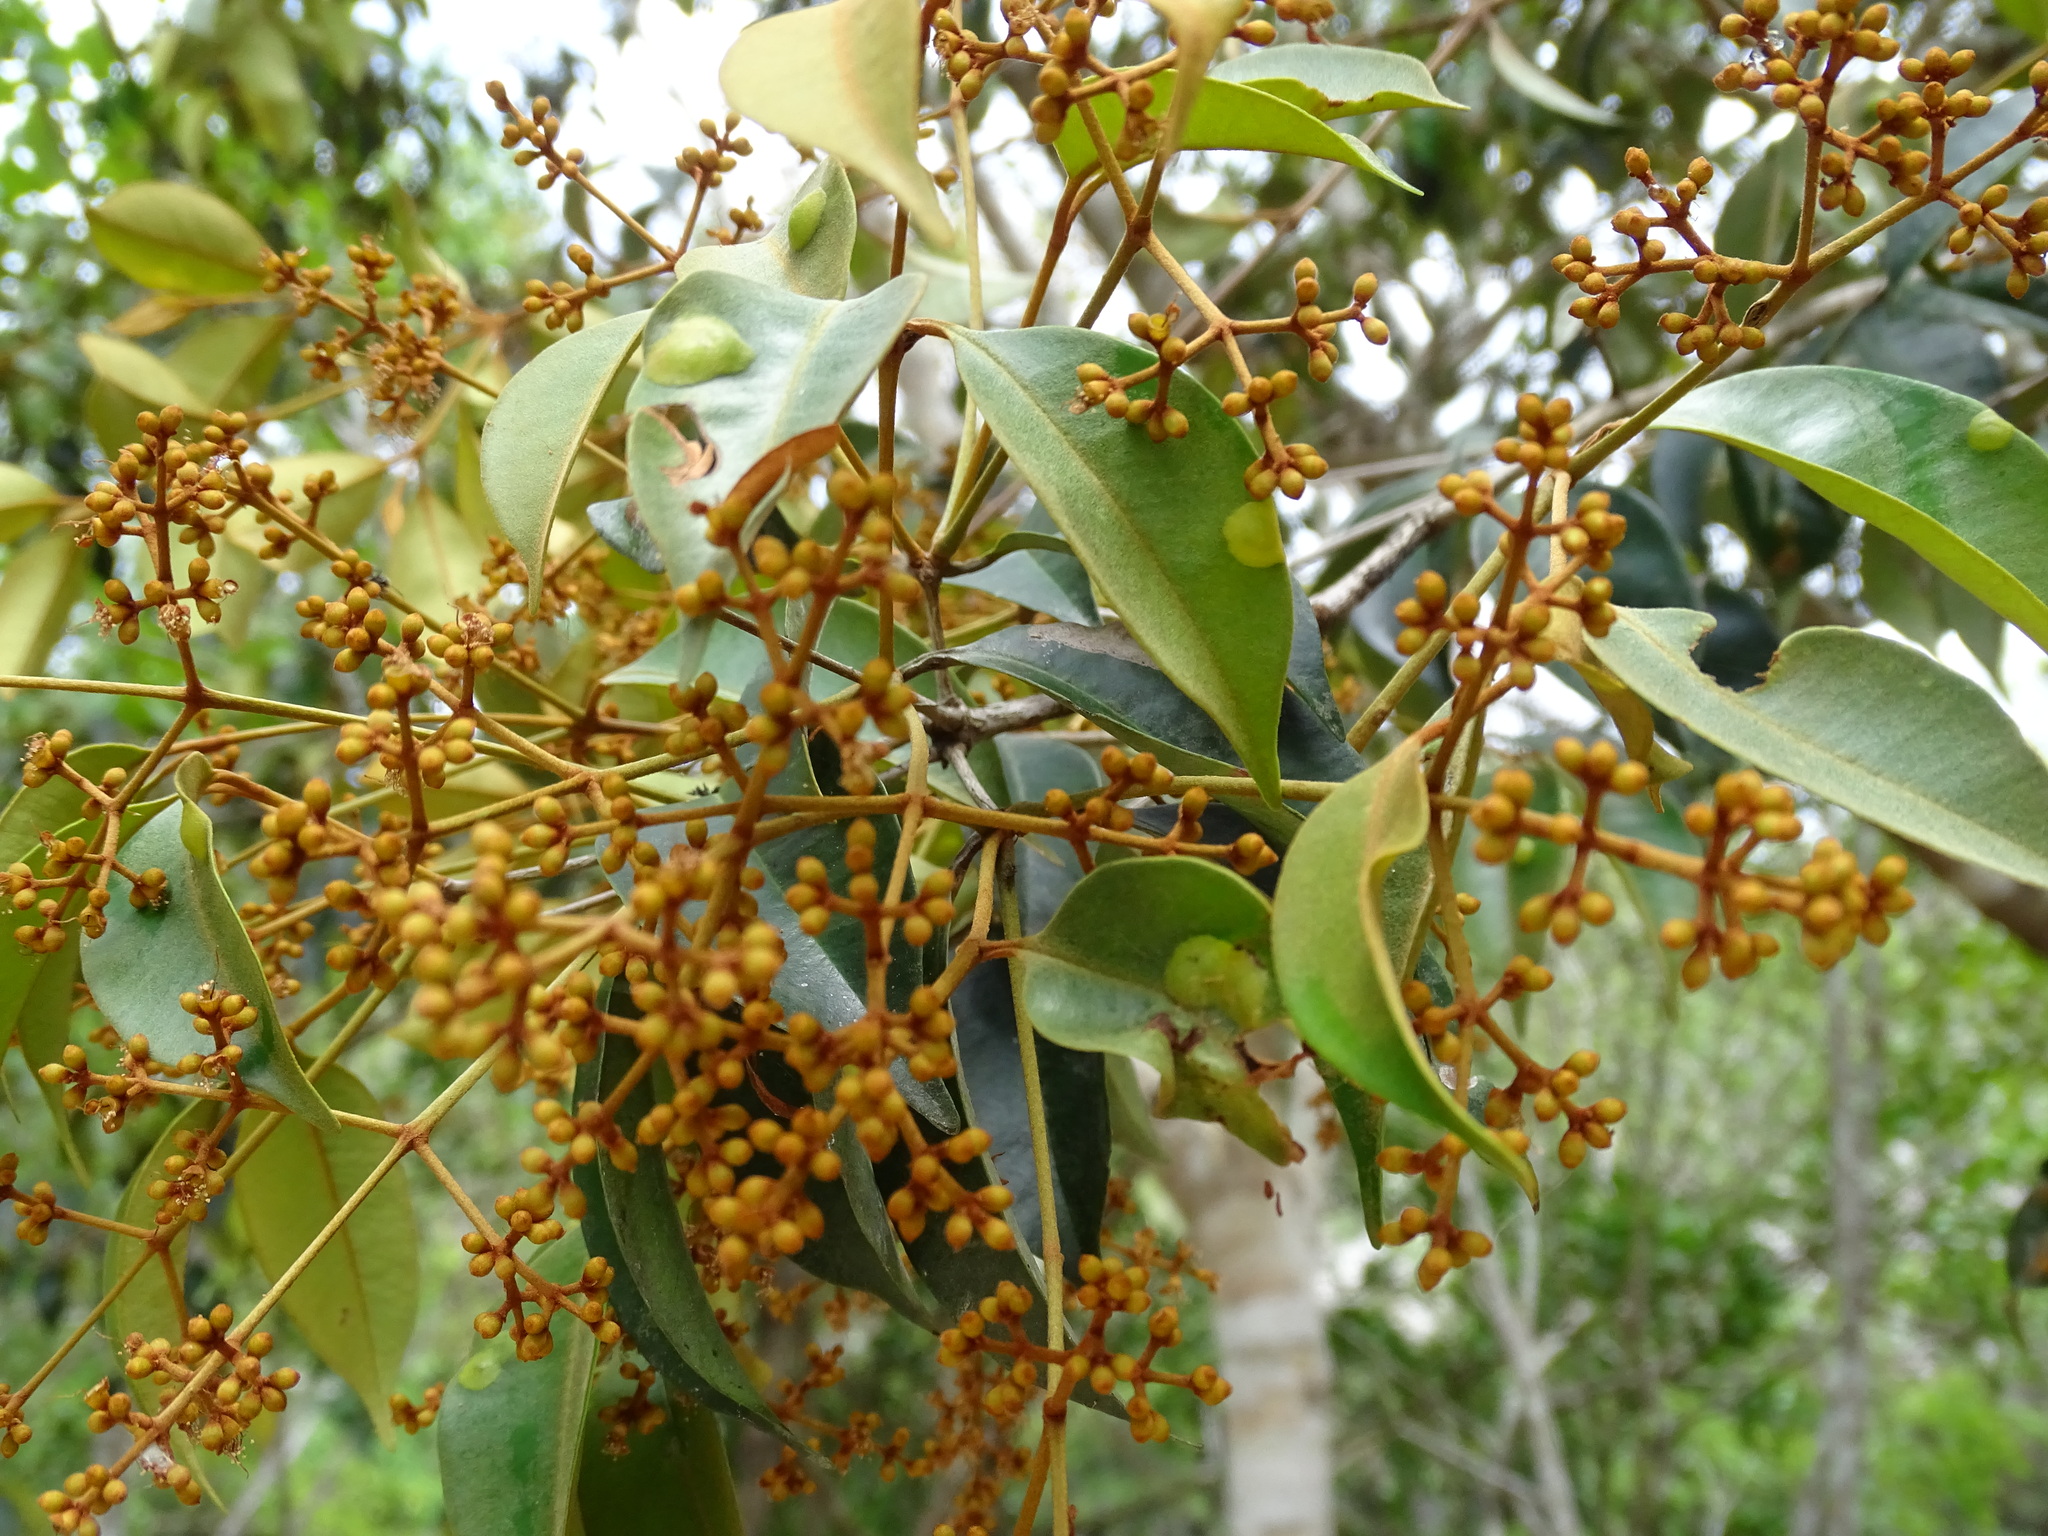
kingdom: Plantae
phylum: Tracheophyta
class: Magnoliopsida
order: Myrtales
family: Myrtaceae
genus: Myrcia
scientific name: Myrcia chytraculia
